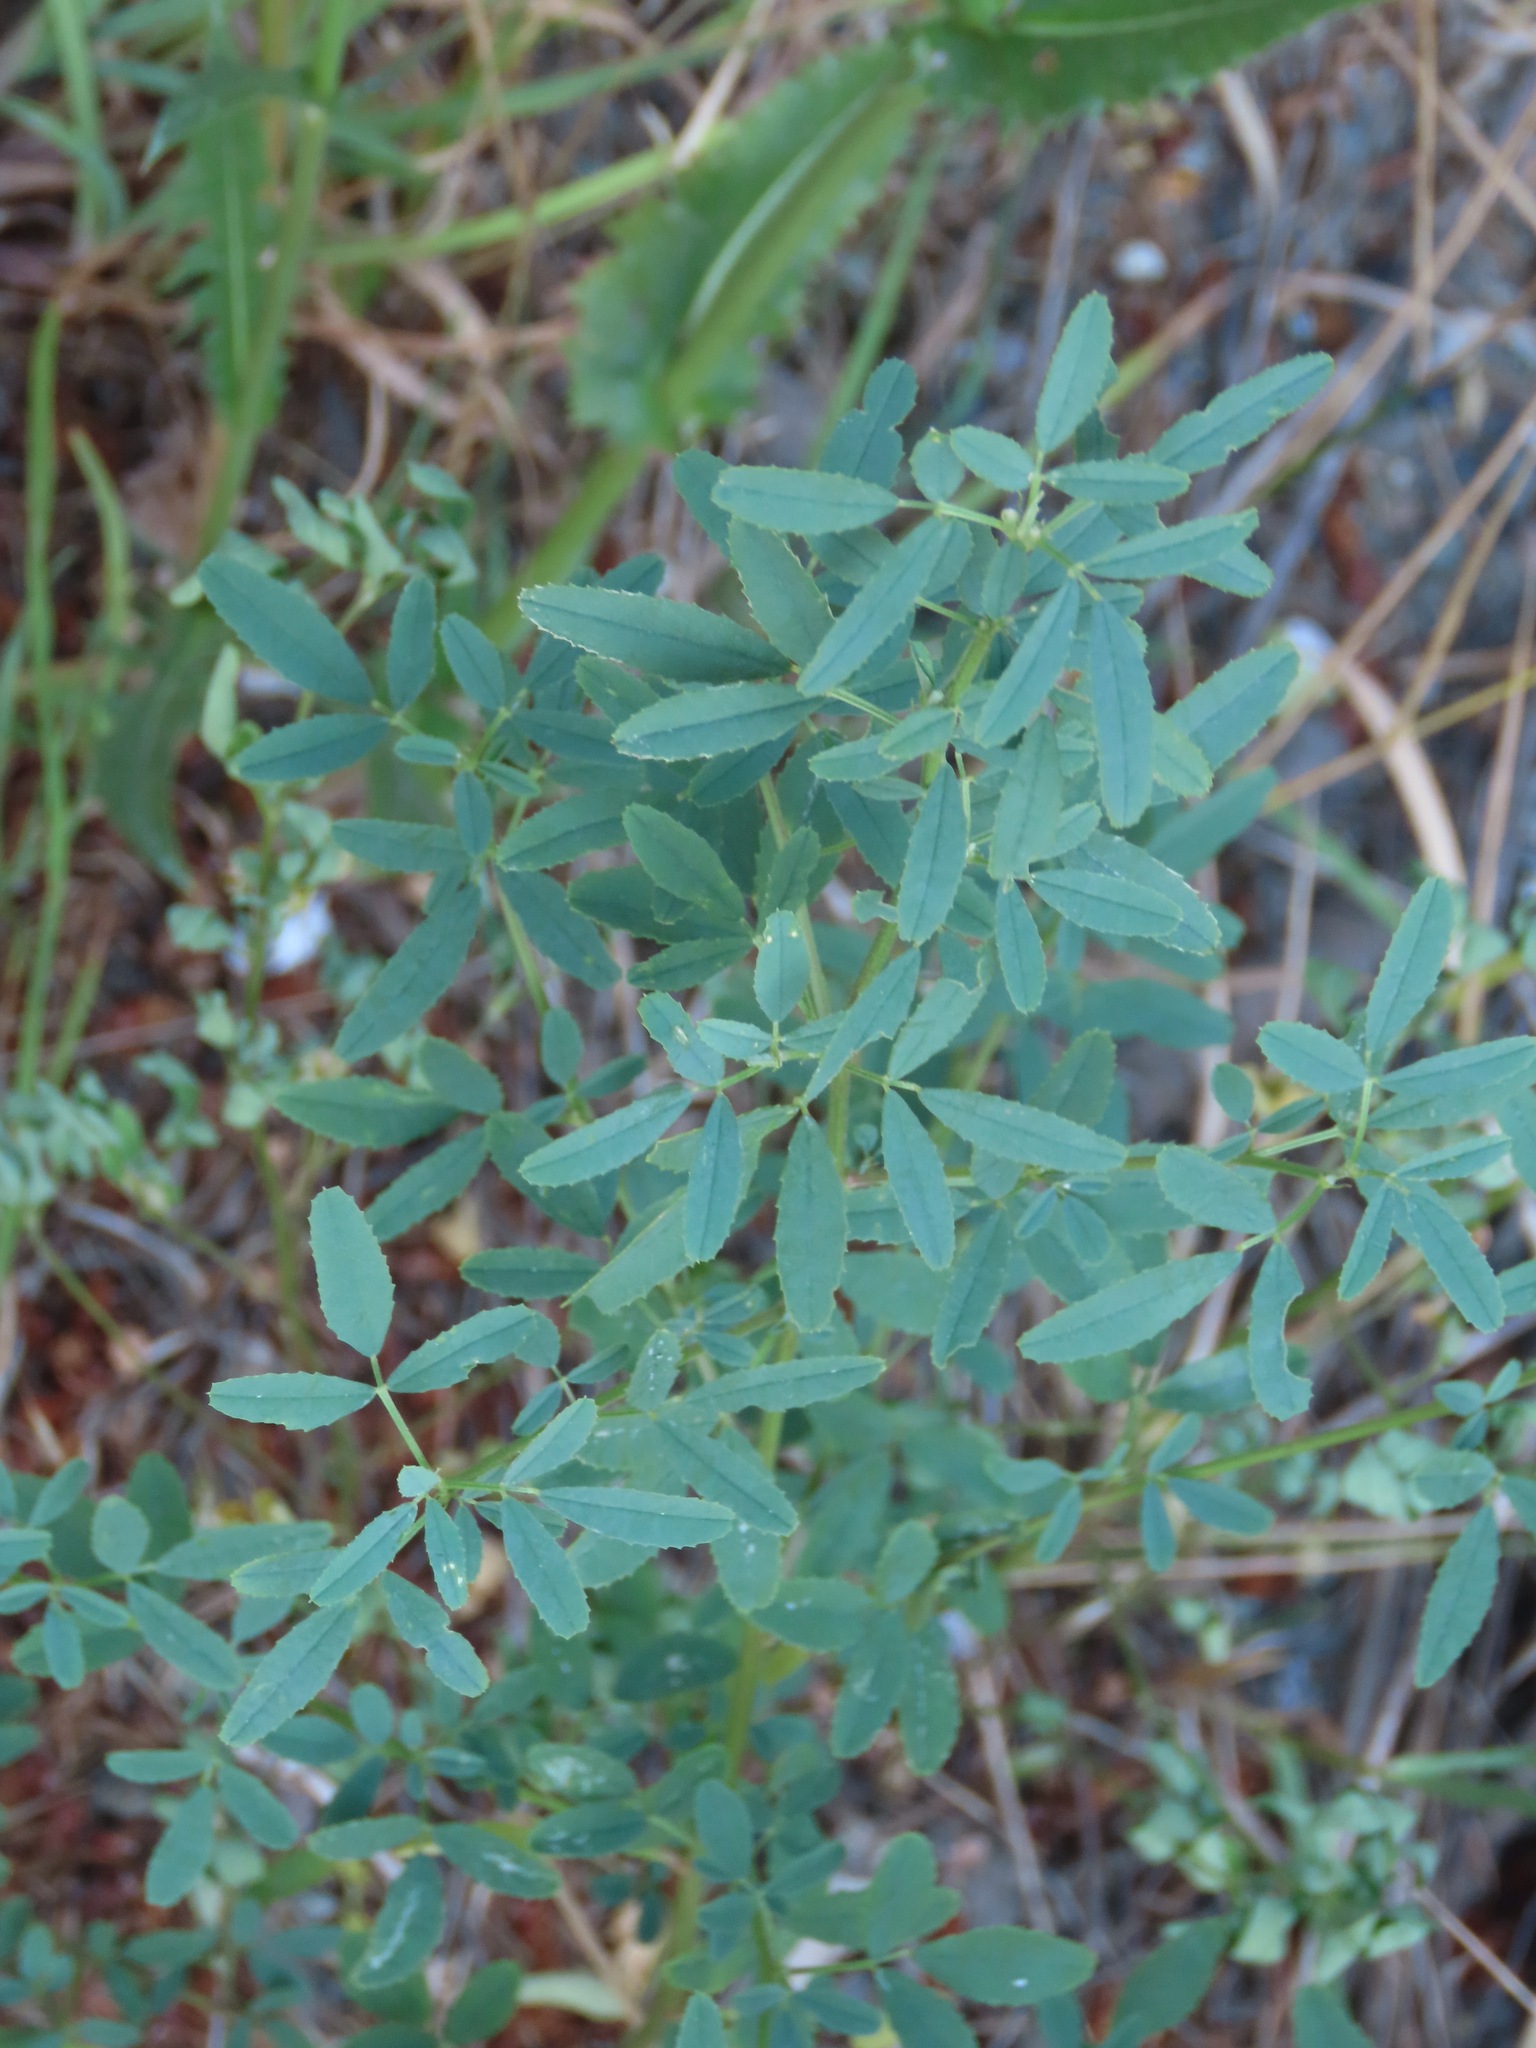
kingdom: Plantae
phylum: Tracheophyta
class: Magnoliopsida
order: Fabales
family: Fabaceae
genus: Melilotus
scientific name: Melilotus
